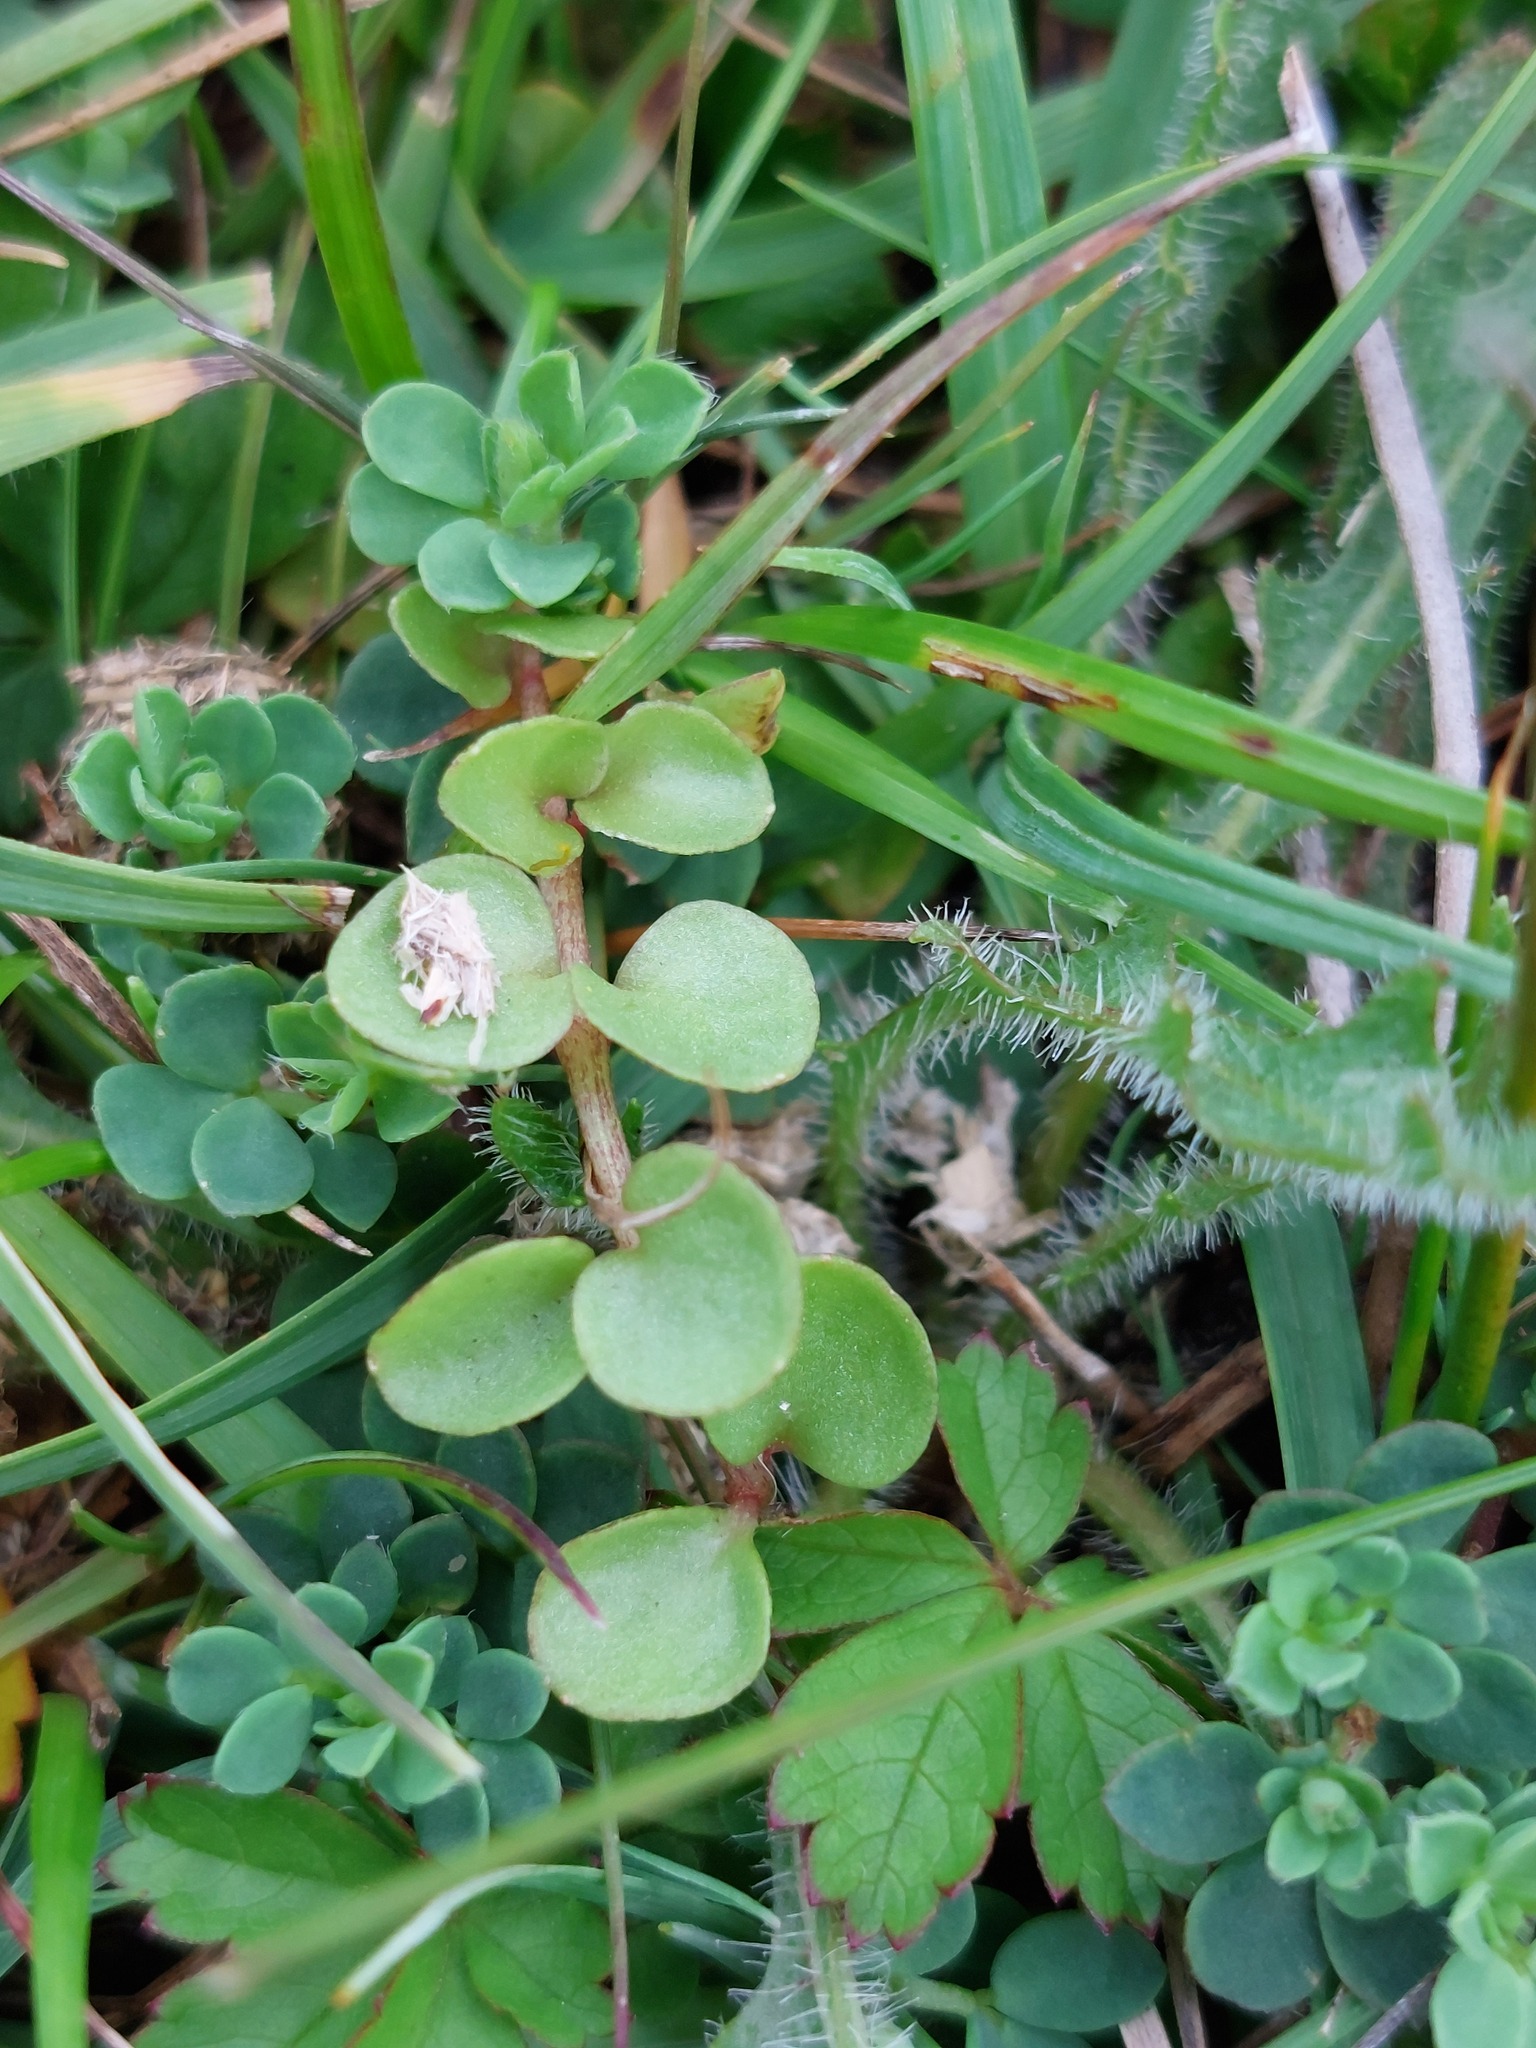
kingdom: Plantae
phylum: Tracheophyta
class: Magnoliopsida
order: Ericales
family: Primulaceae
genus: Lysimachia
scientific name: Lysimachia tenella
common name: European bog pimpernel
